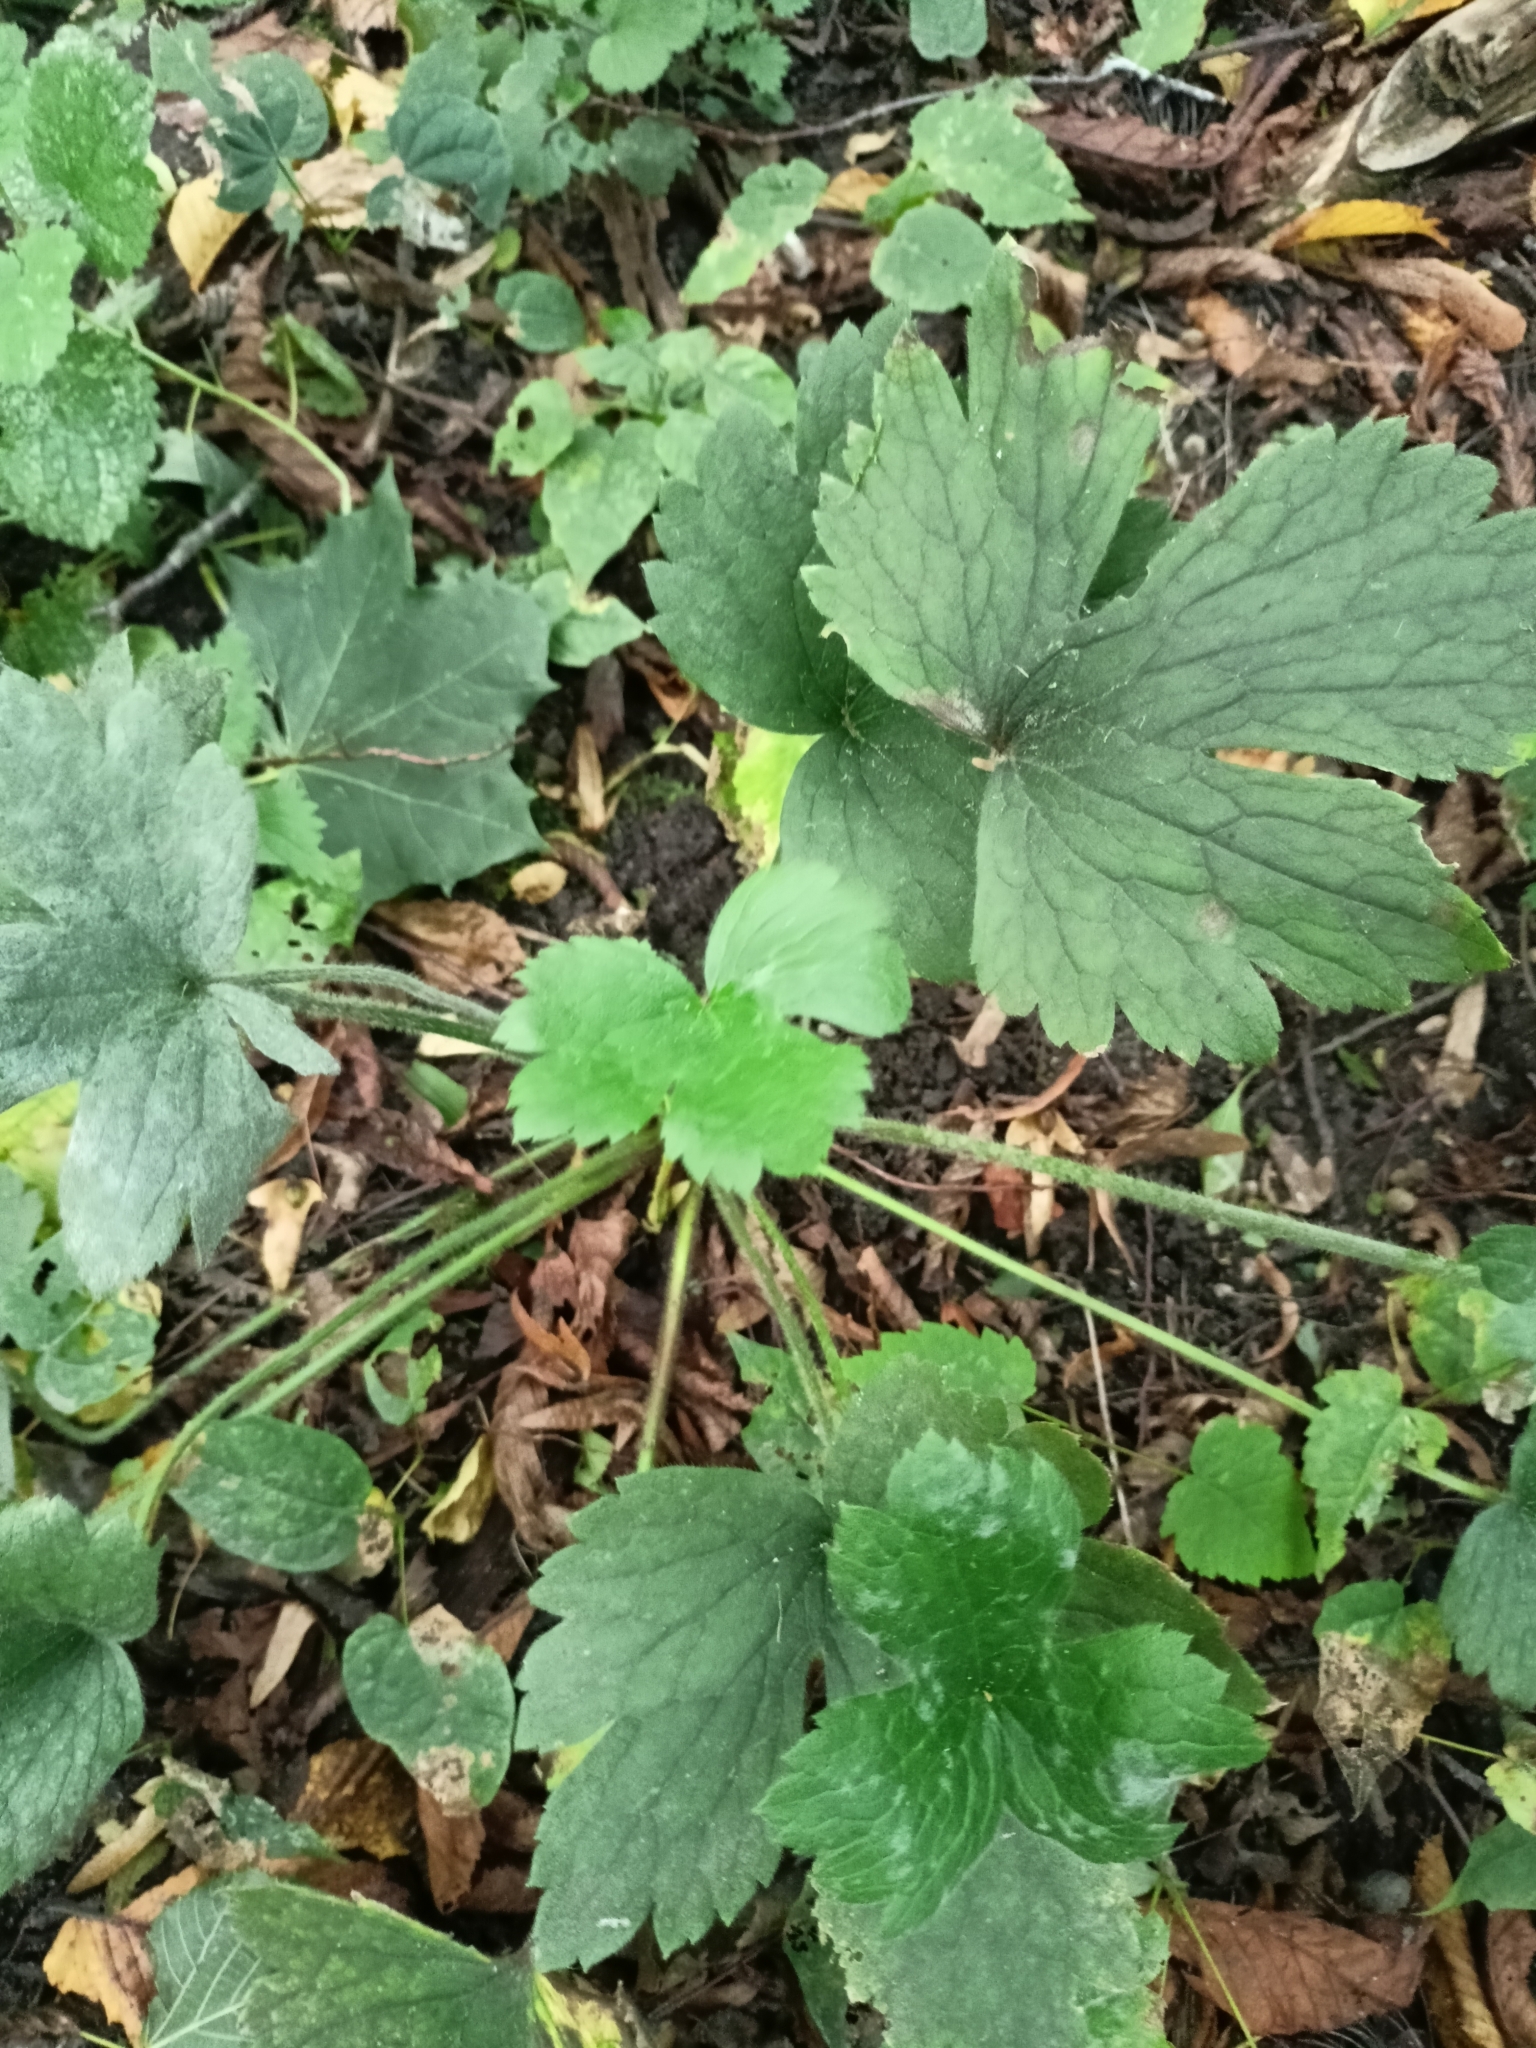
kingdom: Plantae
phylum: Tracheophyta
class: Magnoliopsida
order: Ranunculales
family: Ranunculaceae
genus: Ranunculus
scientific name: Ranunculus lanuginosus
